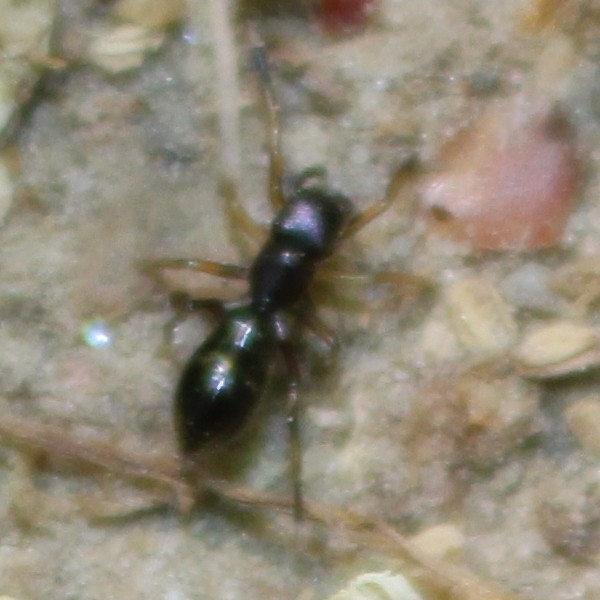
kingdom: Animalia
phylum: Arthropoda
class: Arachnida
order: Araneae
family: Salticidae
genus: Myrmarachne
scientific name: Myrmarachne formicaria
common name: Ant mimic jumping spider
